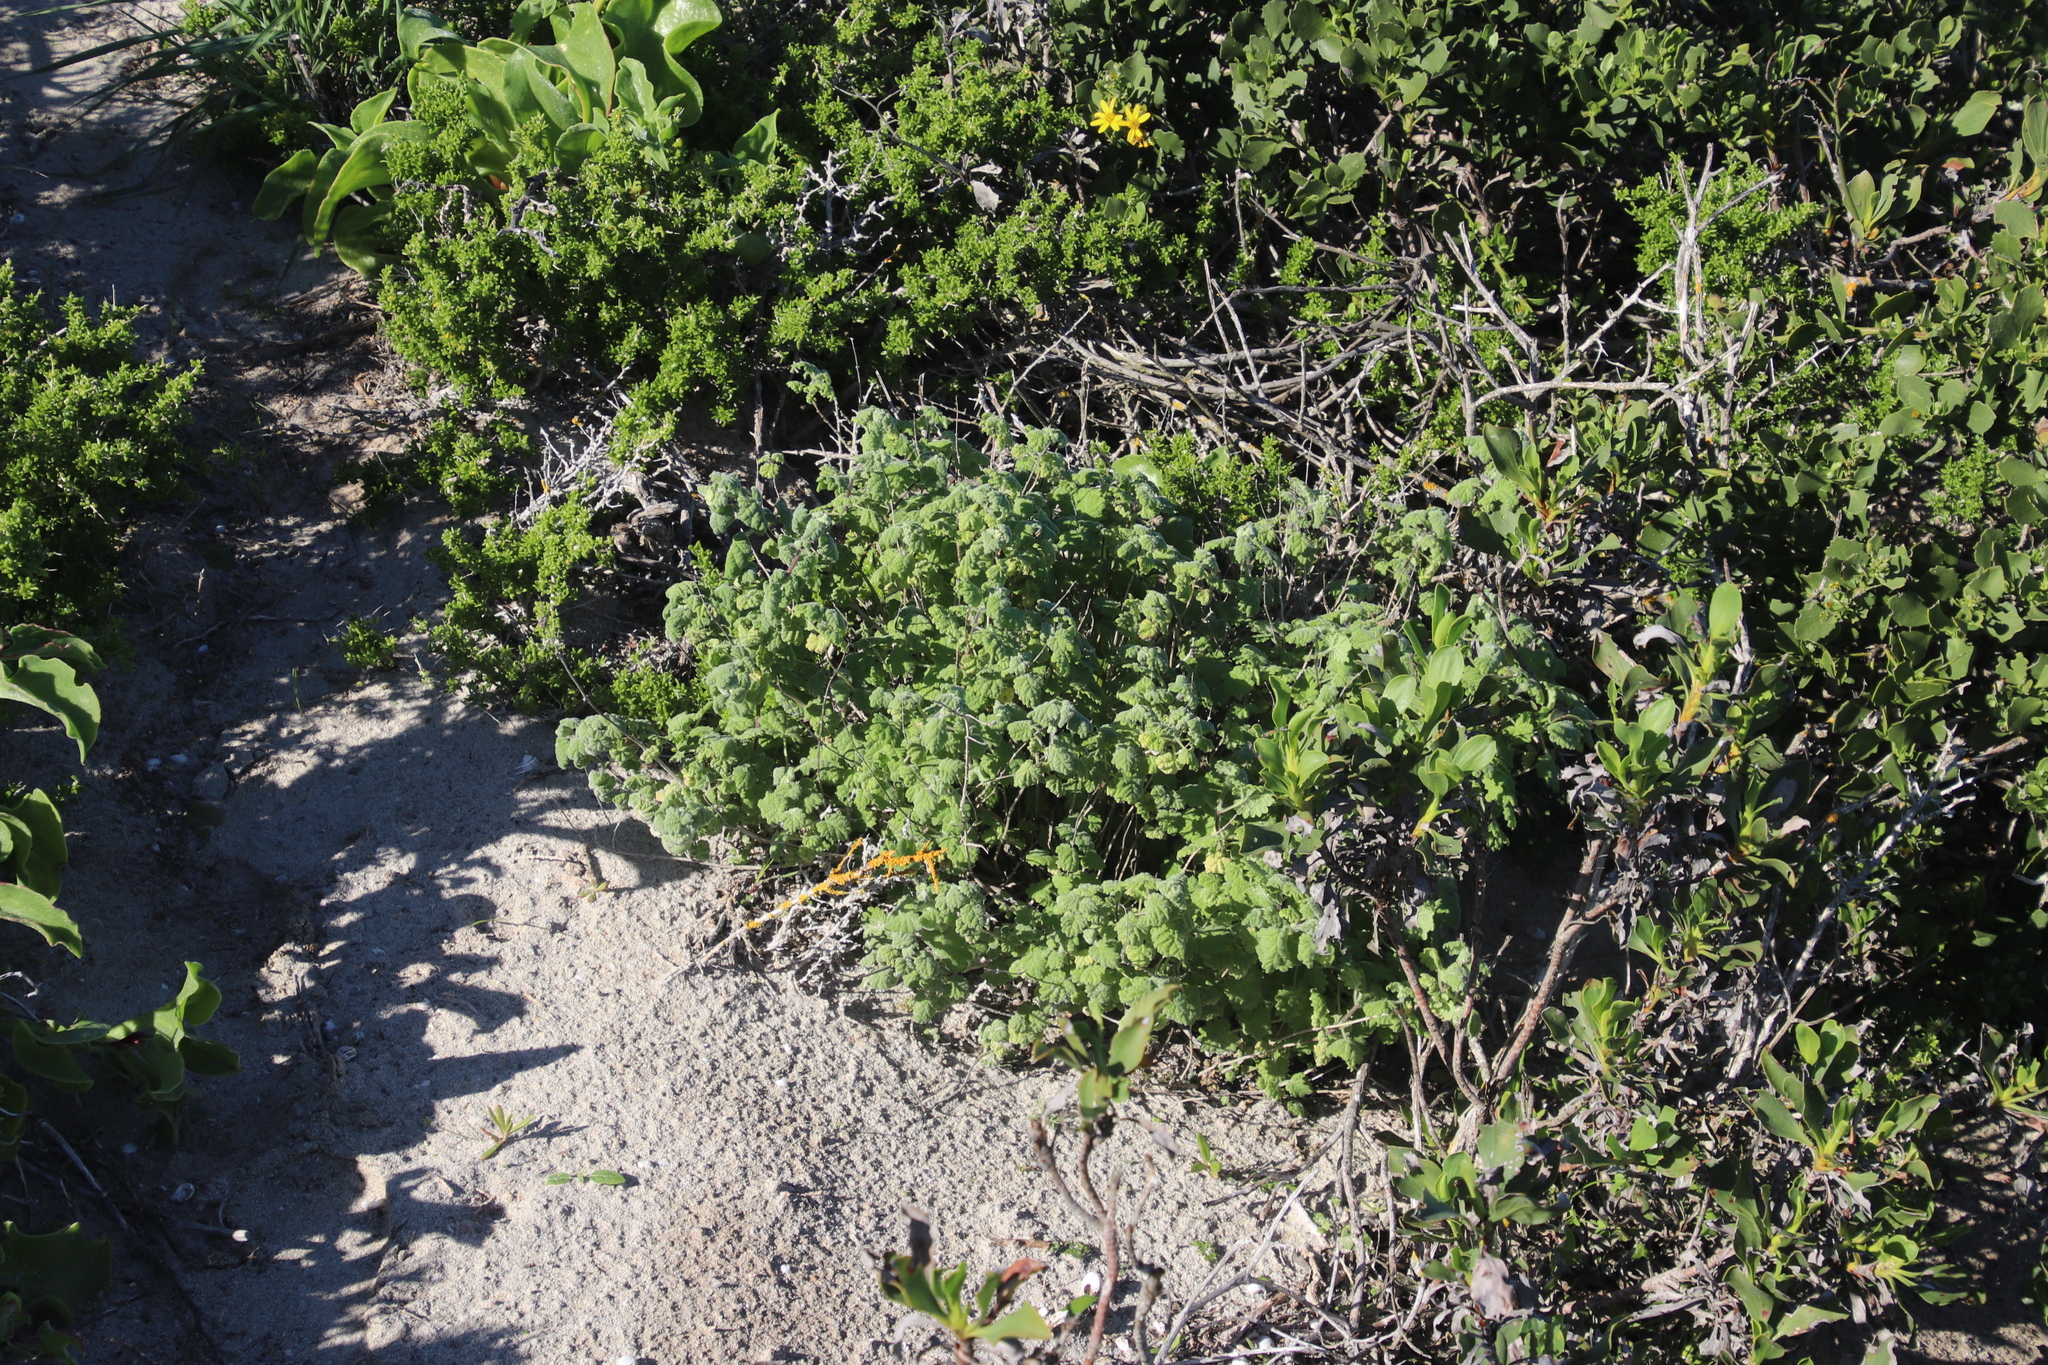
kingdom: Plantae
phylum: Tracheophyta
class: Magnoliopsida
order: Lamiales
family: Lamiaceae
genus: Pseudodictamnus
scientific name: Pseudodictamnus africanus
